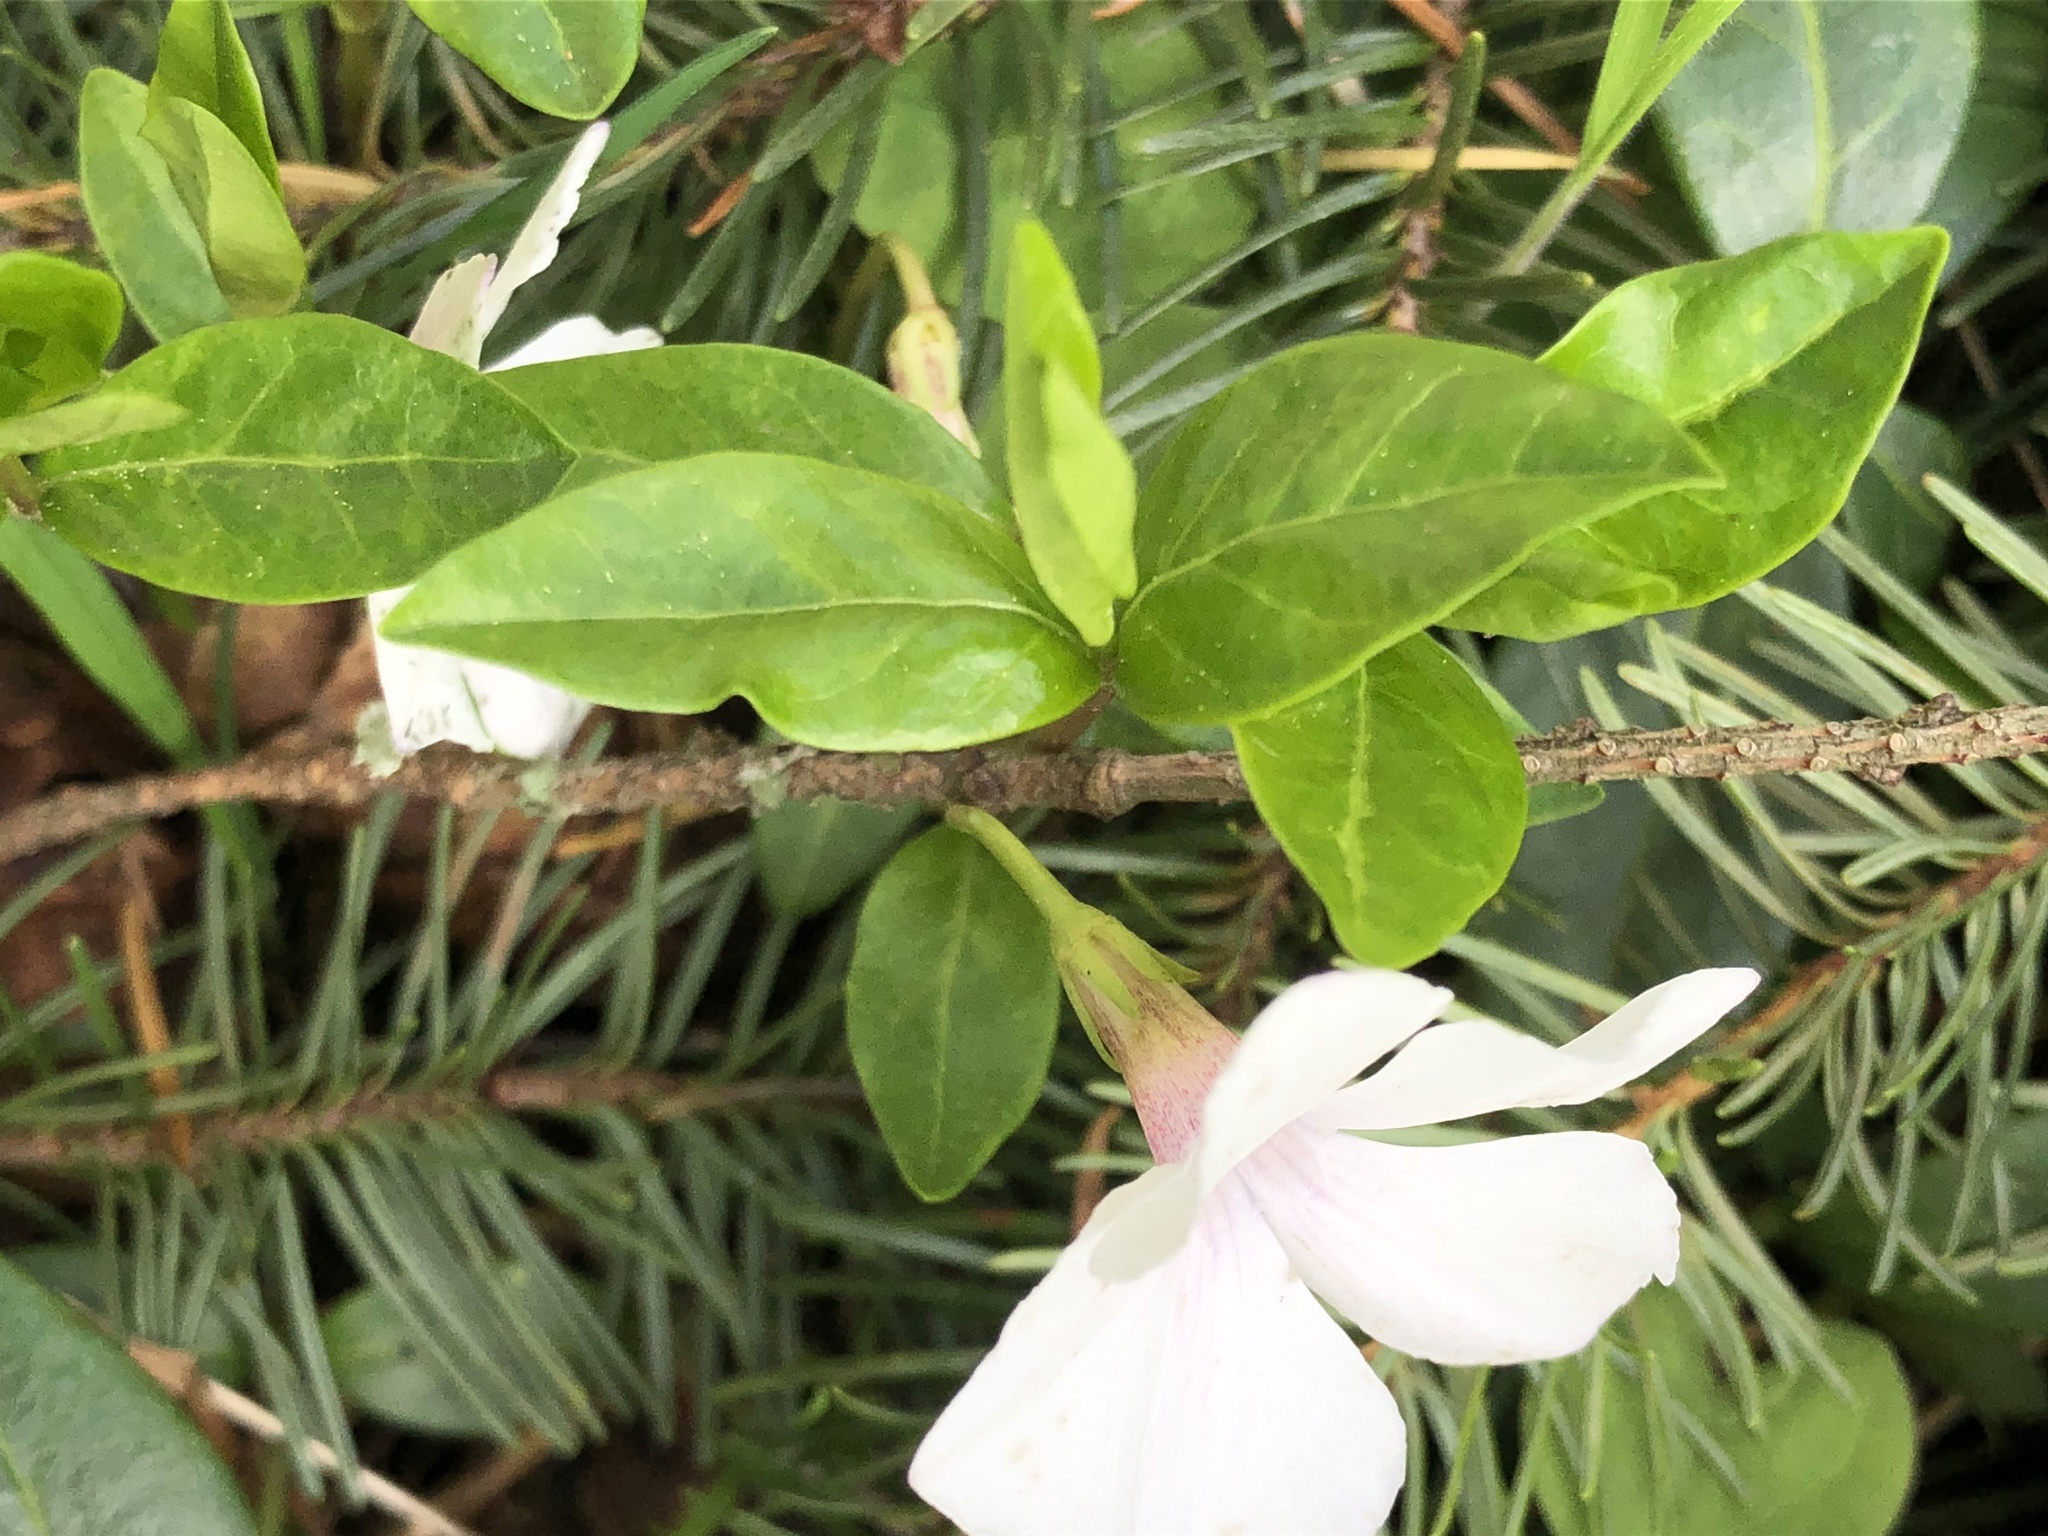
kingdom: Plantae
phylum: Tracheophyta
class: Magnoliopsida
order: Gentianales
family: Apocynaceae
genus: Vinca
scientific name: Vinca minor
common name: Lesser periwinkle
